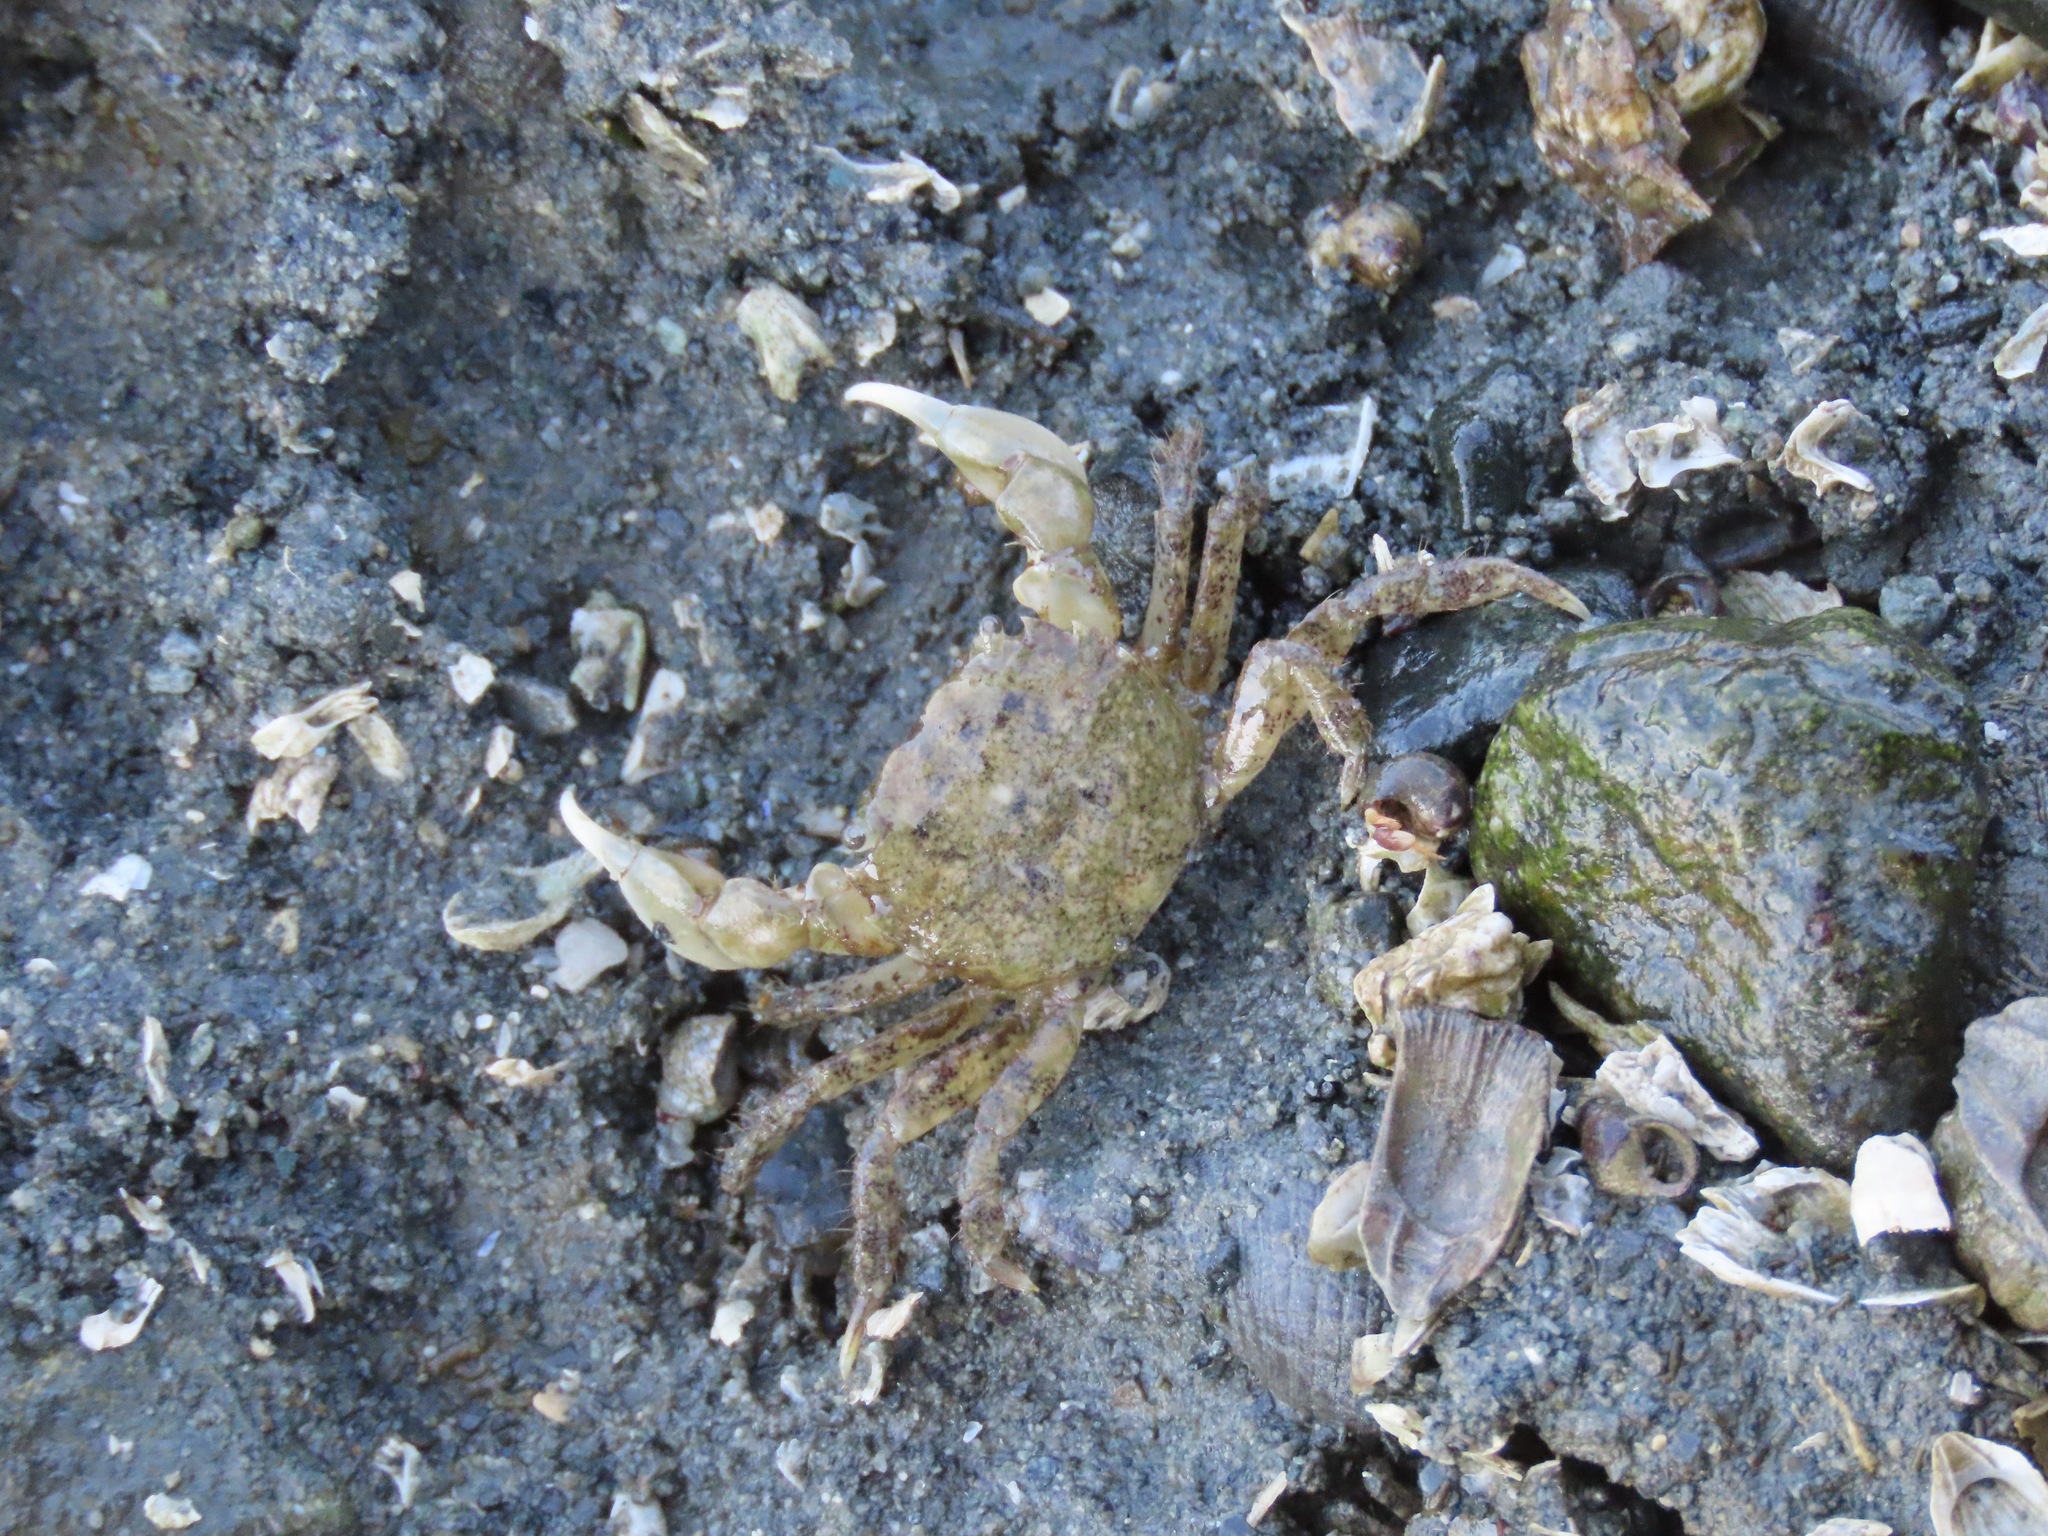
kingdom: Animalia
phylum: Arthropoda
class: Malacostraca
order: Decapoda
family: Varunidae
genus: Hemigrapsus
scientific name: Hemigrapsus oregonensis
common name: Yellow shore crab
